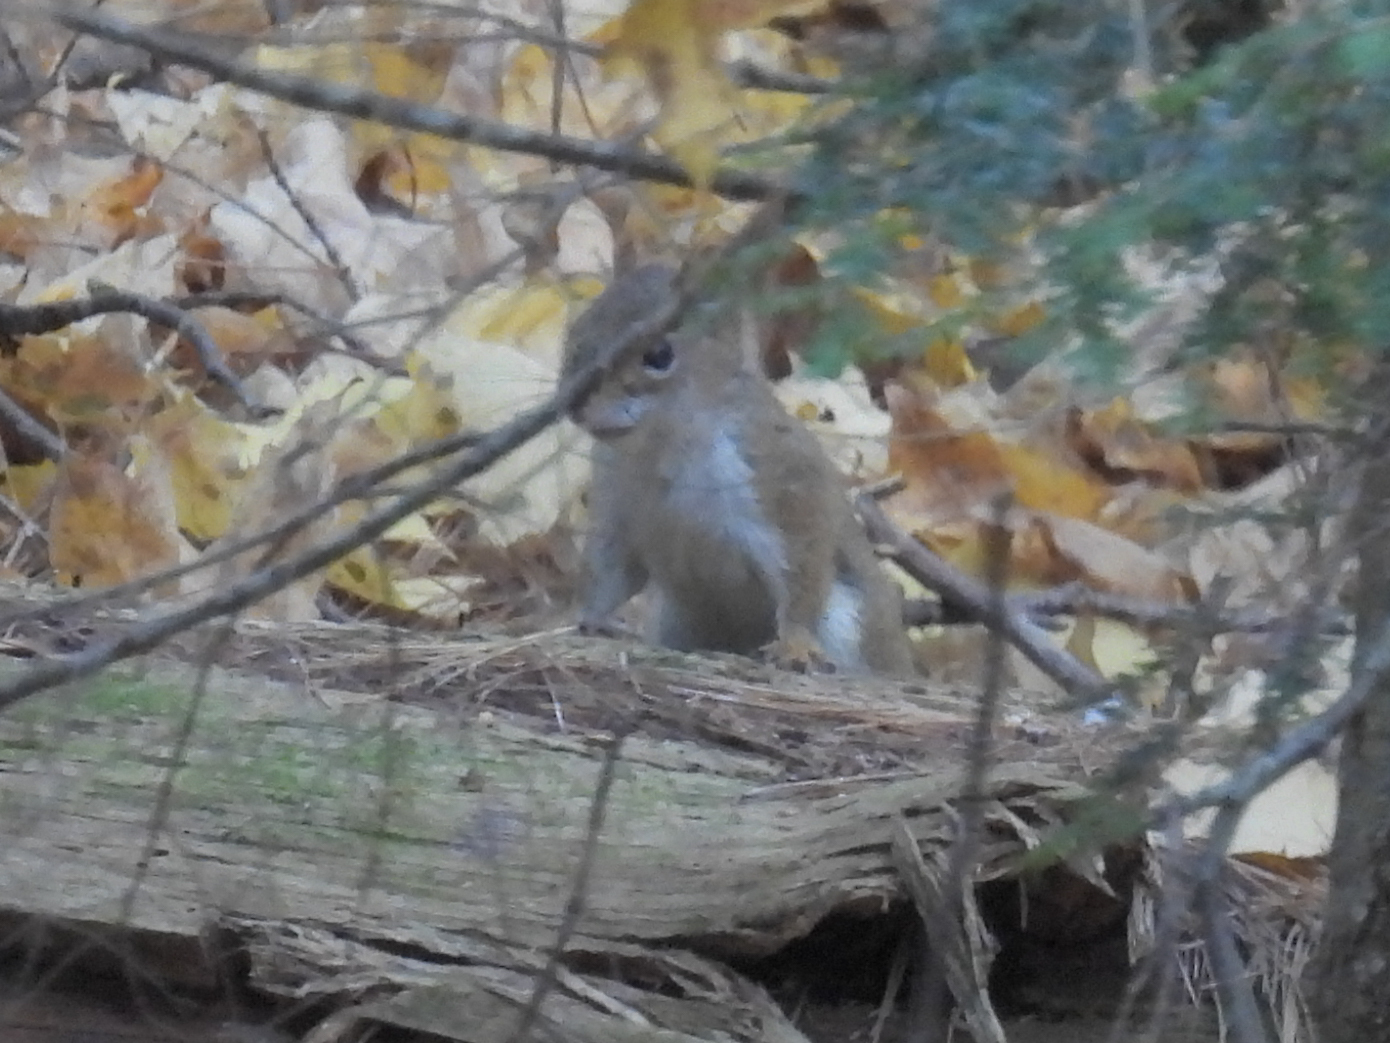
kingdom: Animalia
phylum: Chordata
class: Mammalia
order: Rodentia
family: Sciuridae
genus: Tamiasciurus
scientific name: Tamiasciurus hudsonicus
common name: Red squirrel
